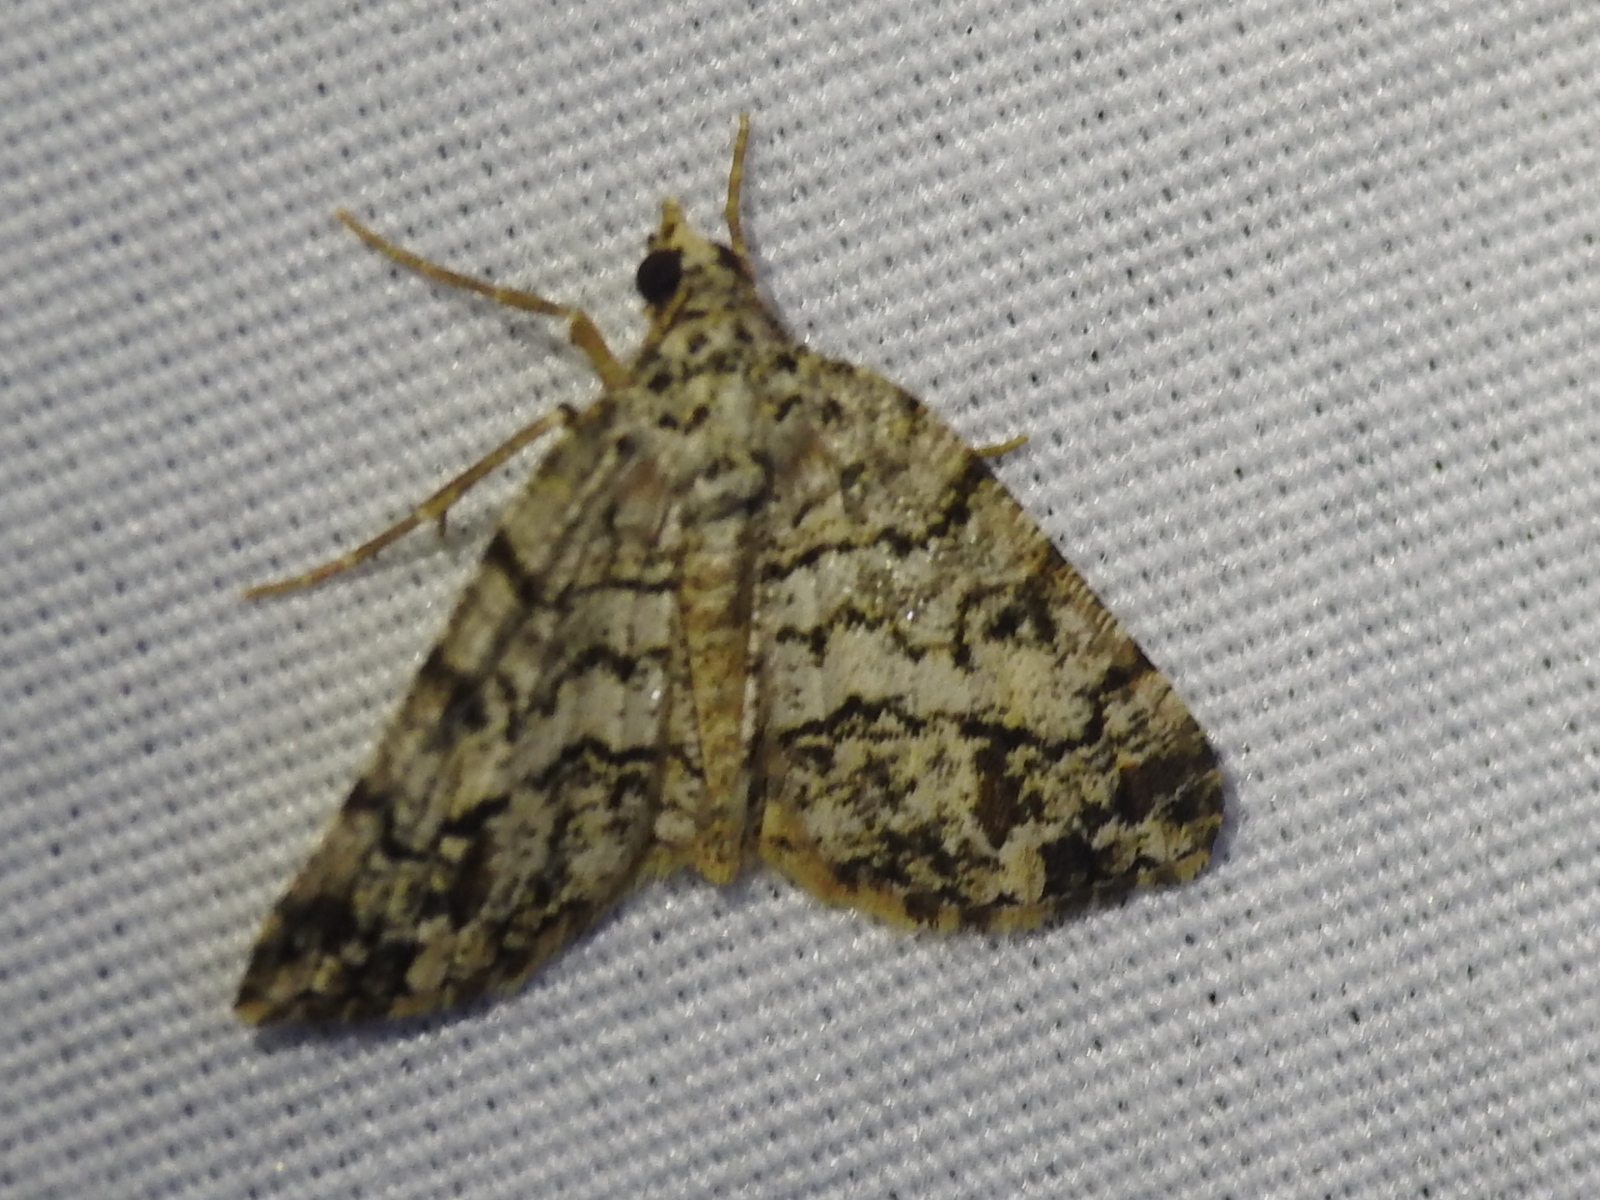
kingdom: Animalia
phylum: Arthropoda
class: Insecta
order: Lepidoptera
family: Geometridae
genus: Macaria
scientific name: Macaria graphidaria
